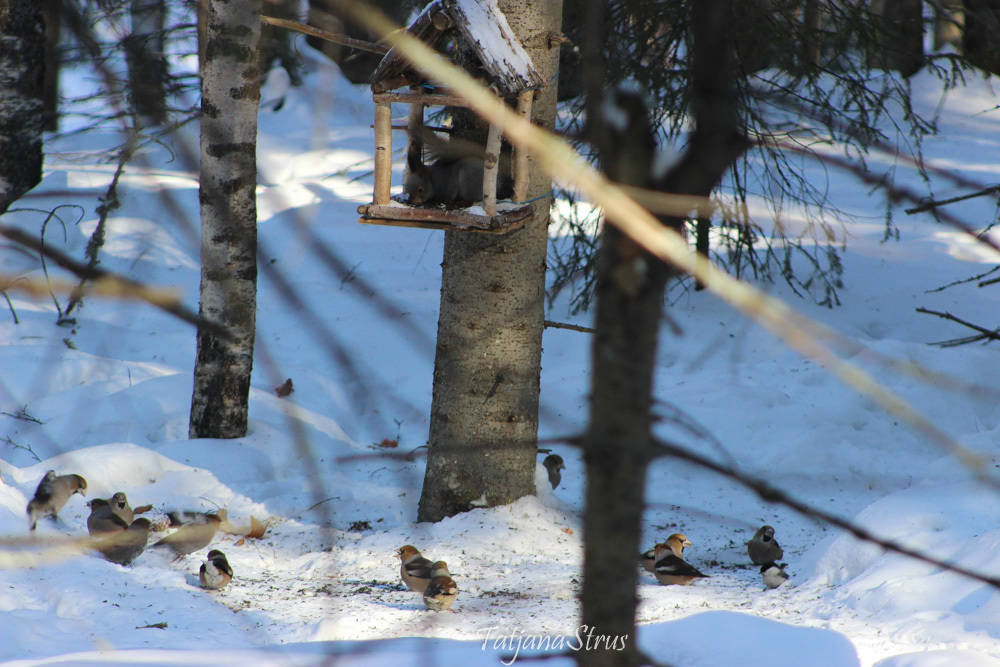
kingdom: Animalia
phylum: Chordata
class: Aves
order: Passeriformes
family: Fringillidae
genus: Coccothraustes
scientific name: Coccothraustes coccothraustes
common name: Hawfinch
